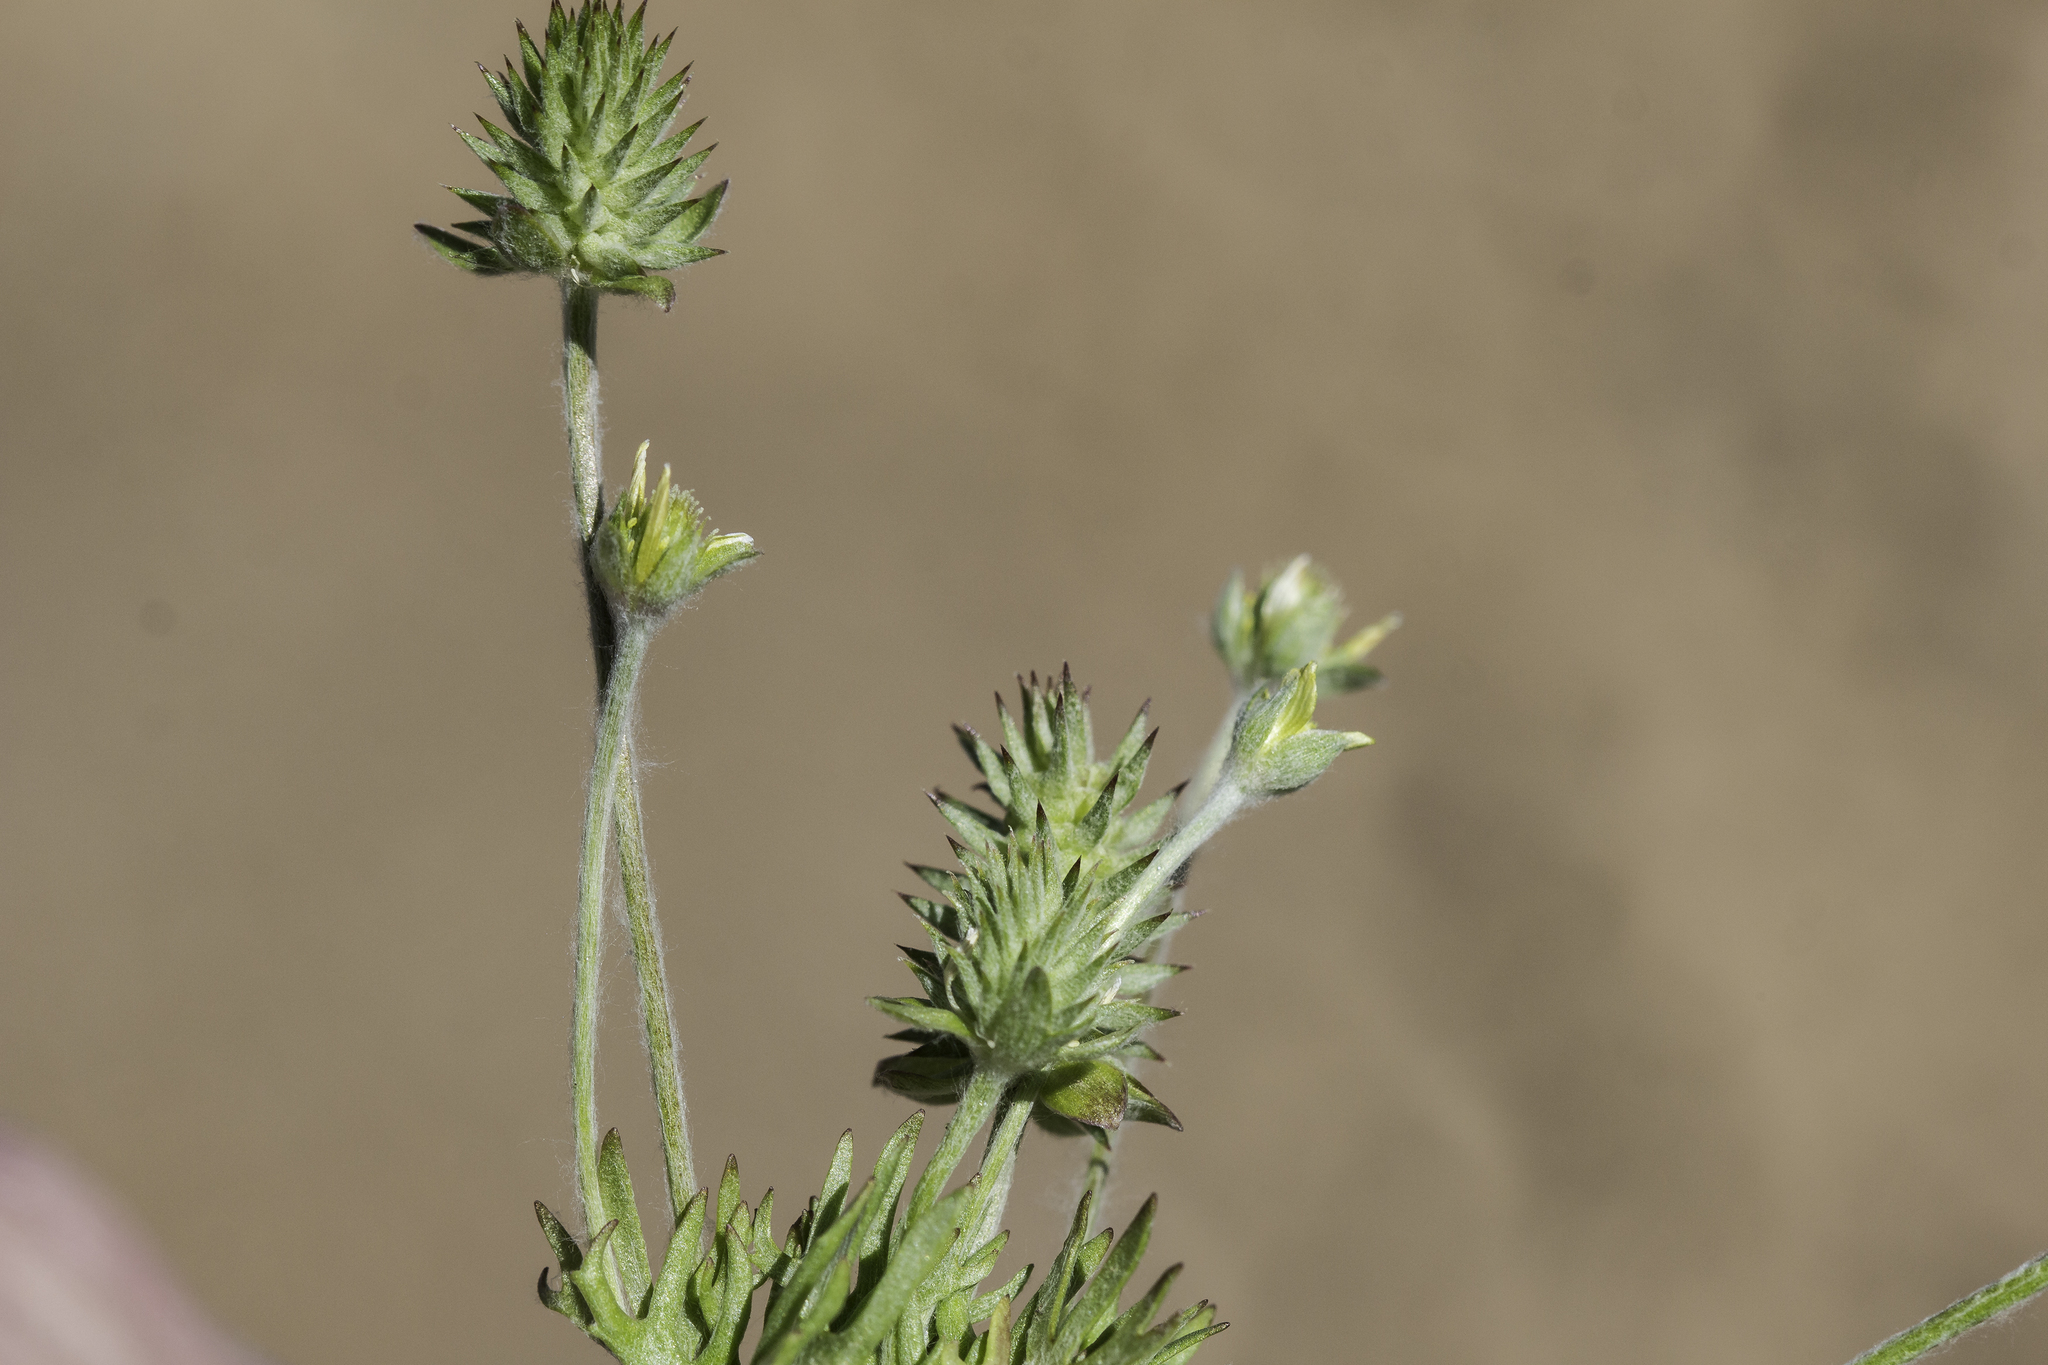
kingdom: Plantae
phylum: Tracheophyta
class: Magnoliopsida
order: Ranunculales
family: Ranunculaceae
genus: Ceratocephala
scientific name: Ceratocephala orthoceras
